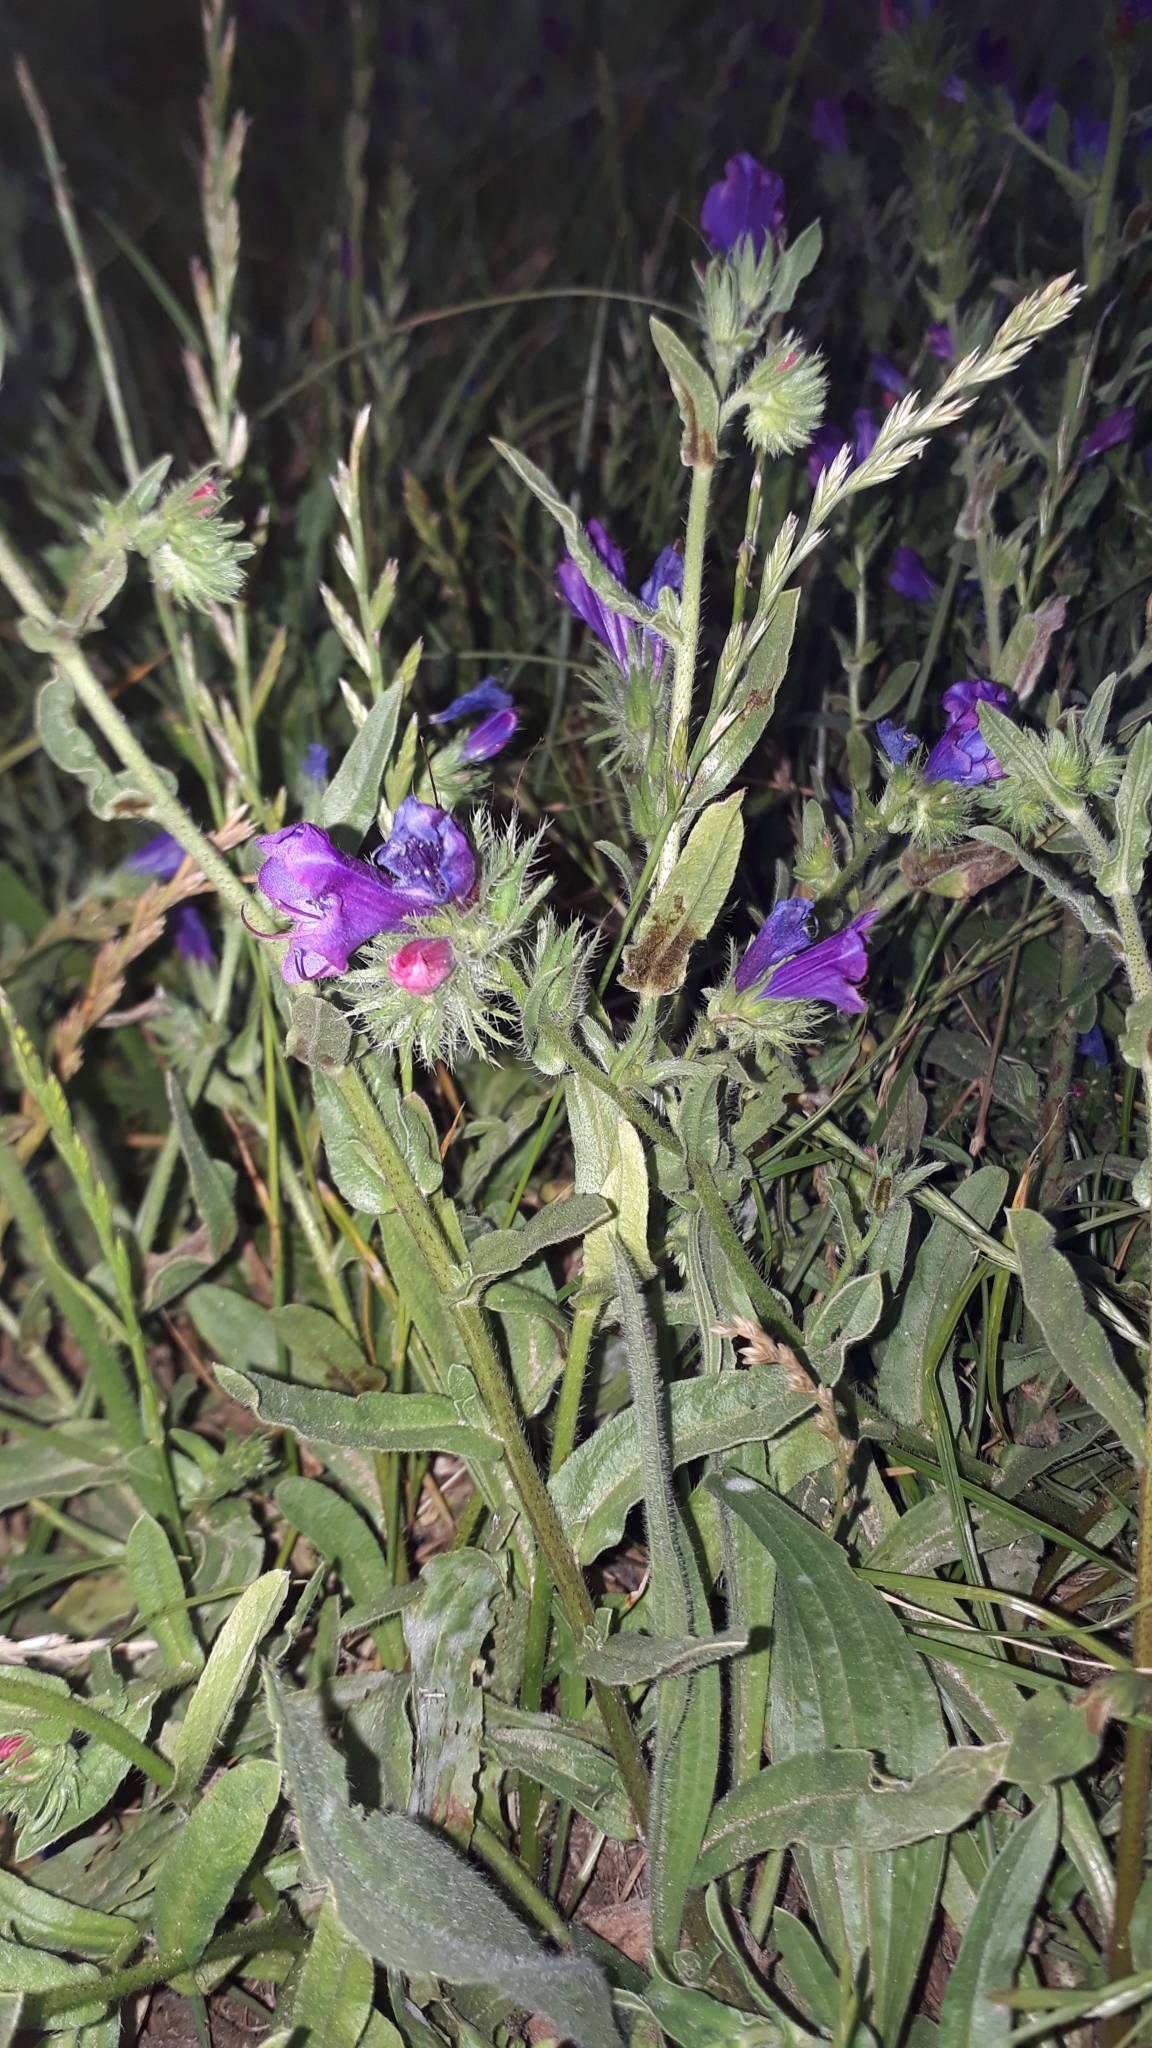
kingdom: Plantae
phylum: Tracheophyta
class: Magnoliopsida
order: Boraginales
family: Boraginaceae
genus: Echium
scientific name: Echium plantagineum
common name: Purple viper's-bugloss
